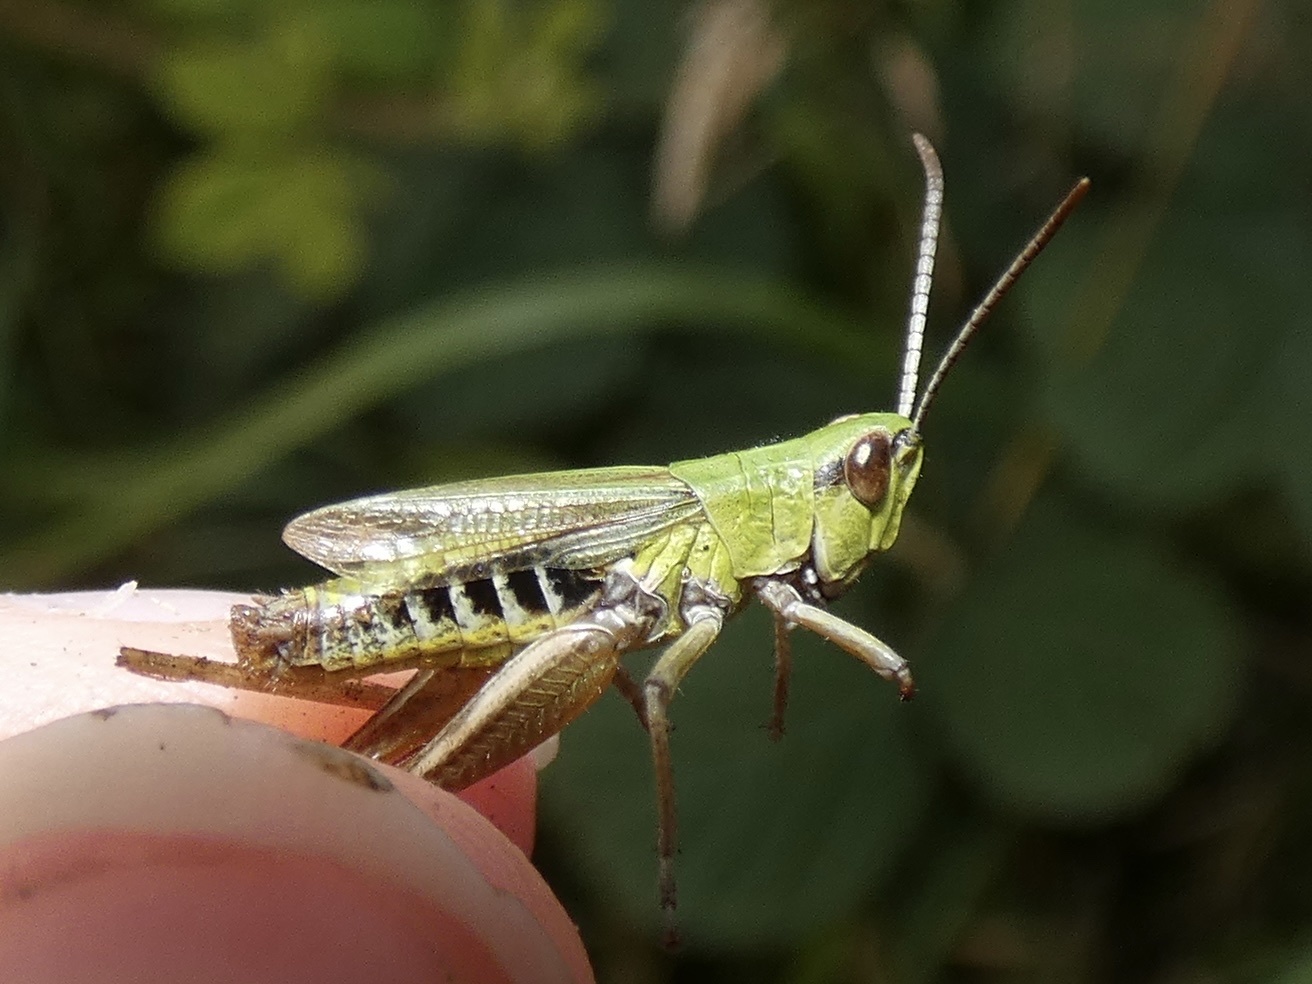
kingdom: Animalia
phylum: Arthropoda
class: Insecta
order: Orthoptera
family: Acrididae
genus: Pseudochorthippus
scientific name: Pseudochorthippus parallelus
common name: Meadow grasshopper
